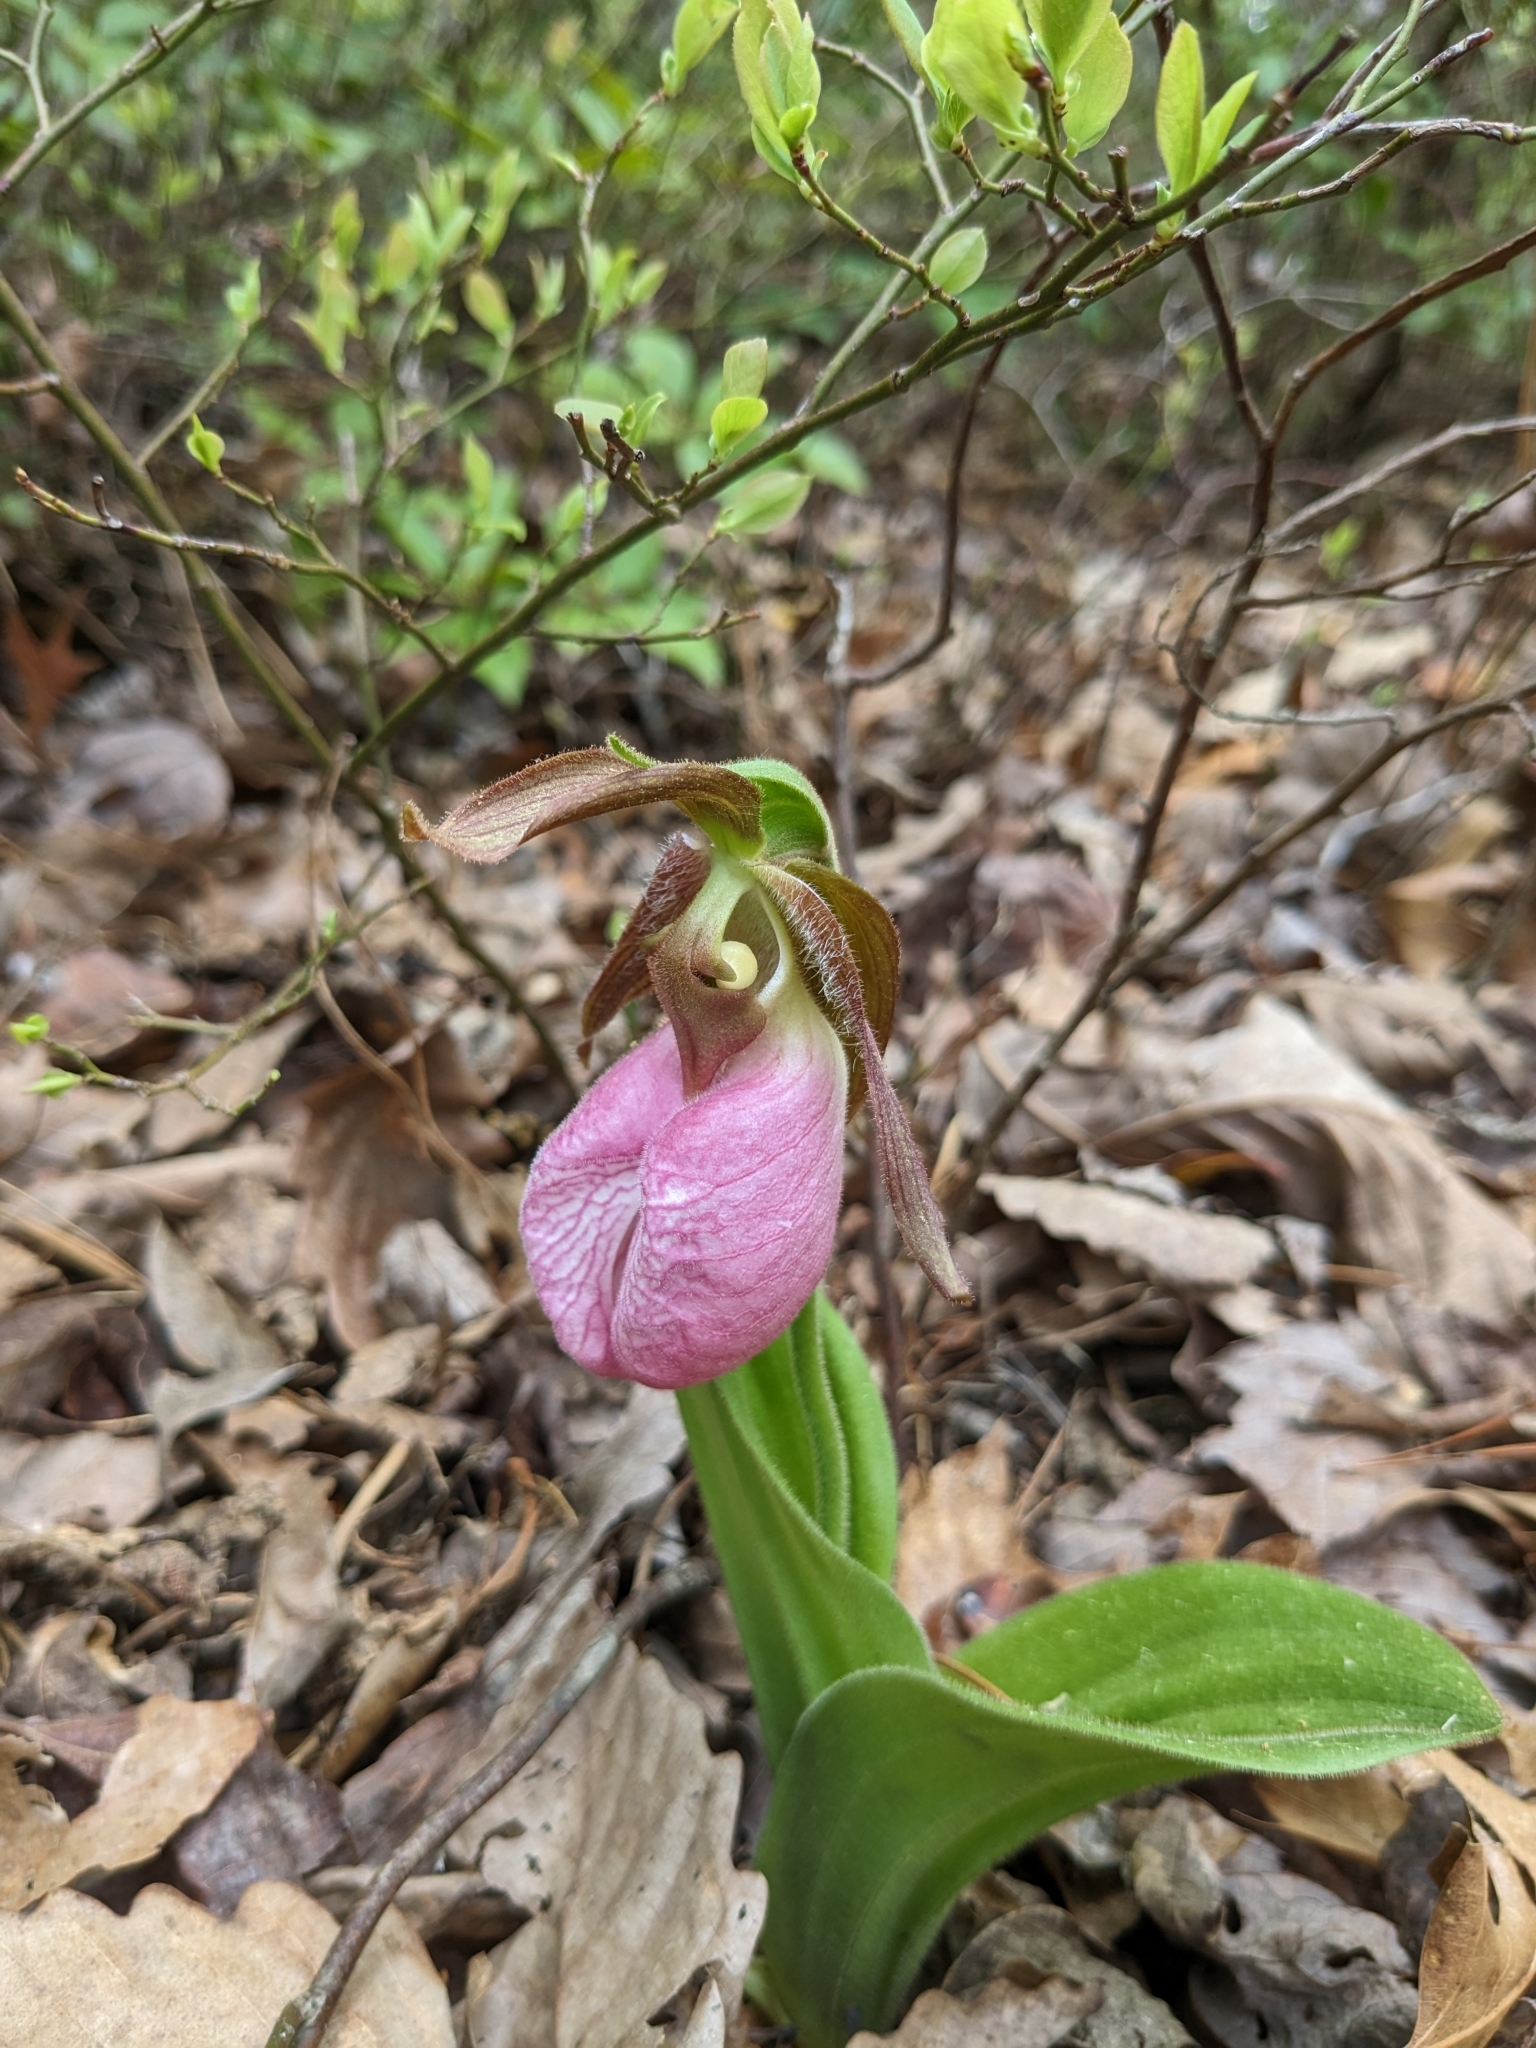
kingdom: Plantae
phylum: Tracheophyta
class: Liliopsida
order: Asparagales
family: Orchidaceae
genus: Cypripedium
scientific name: Cypripedium acaule
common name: Pink lady's-slipper
